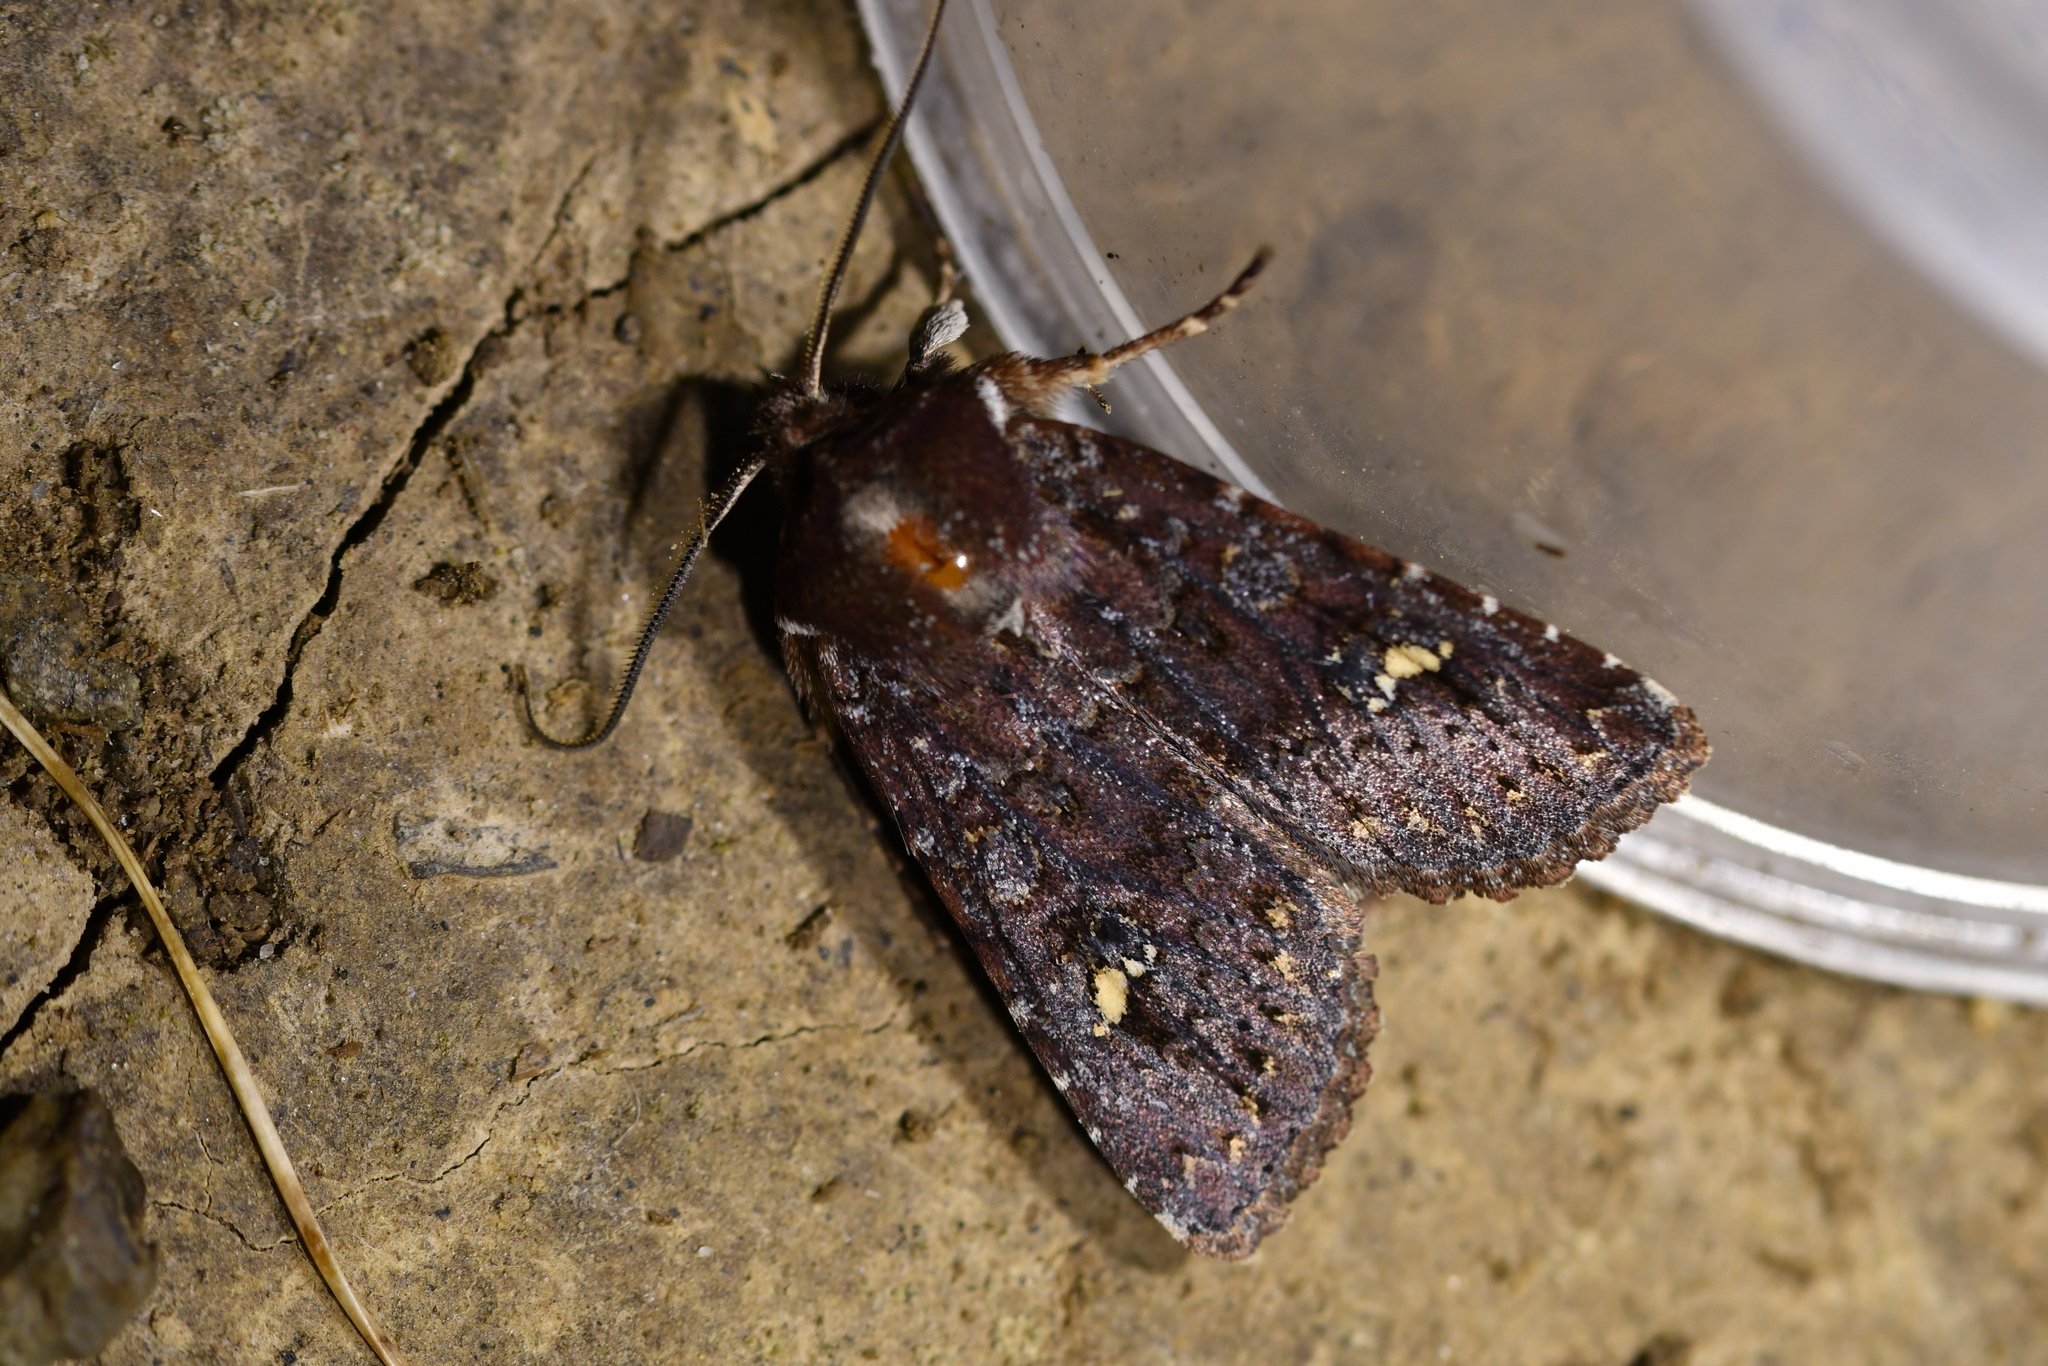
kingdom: Animalia
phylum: Arthropoda
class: Insecta
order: Lepidoptera
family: Noctuidae
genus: Ichneutica
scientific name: Ichneutica agorastis
